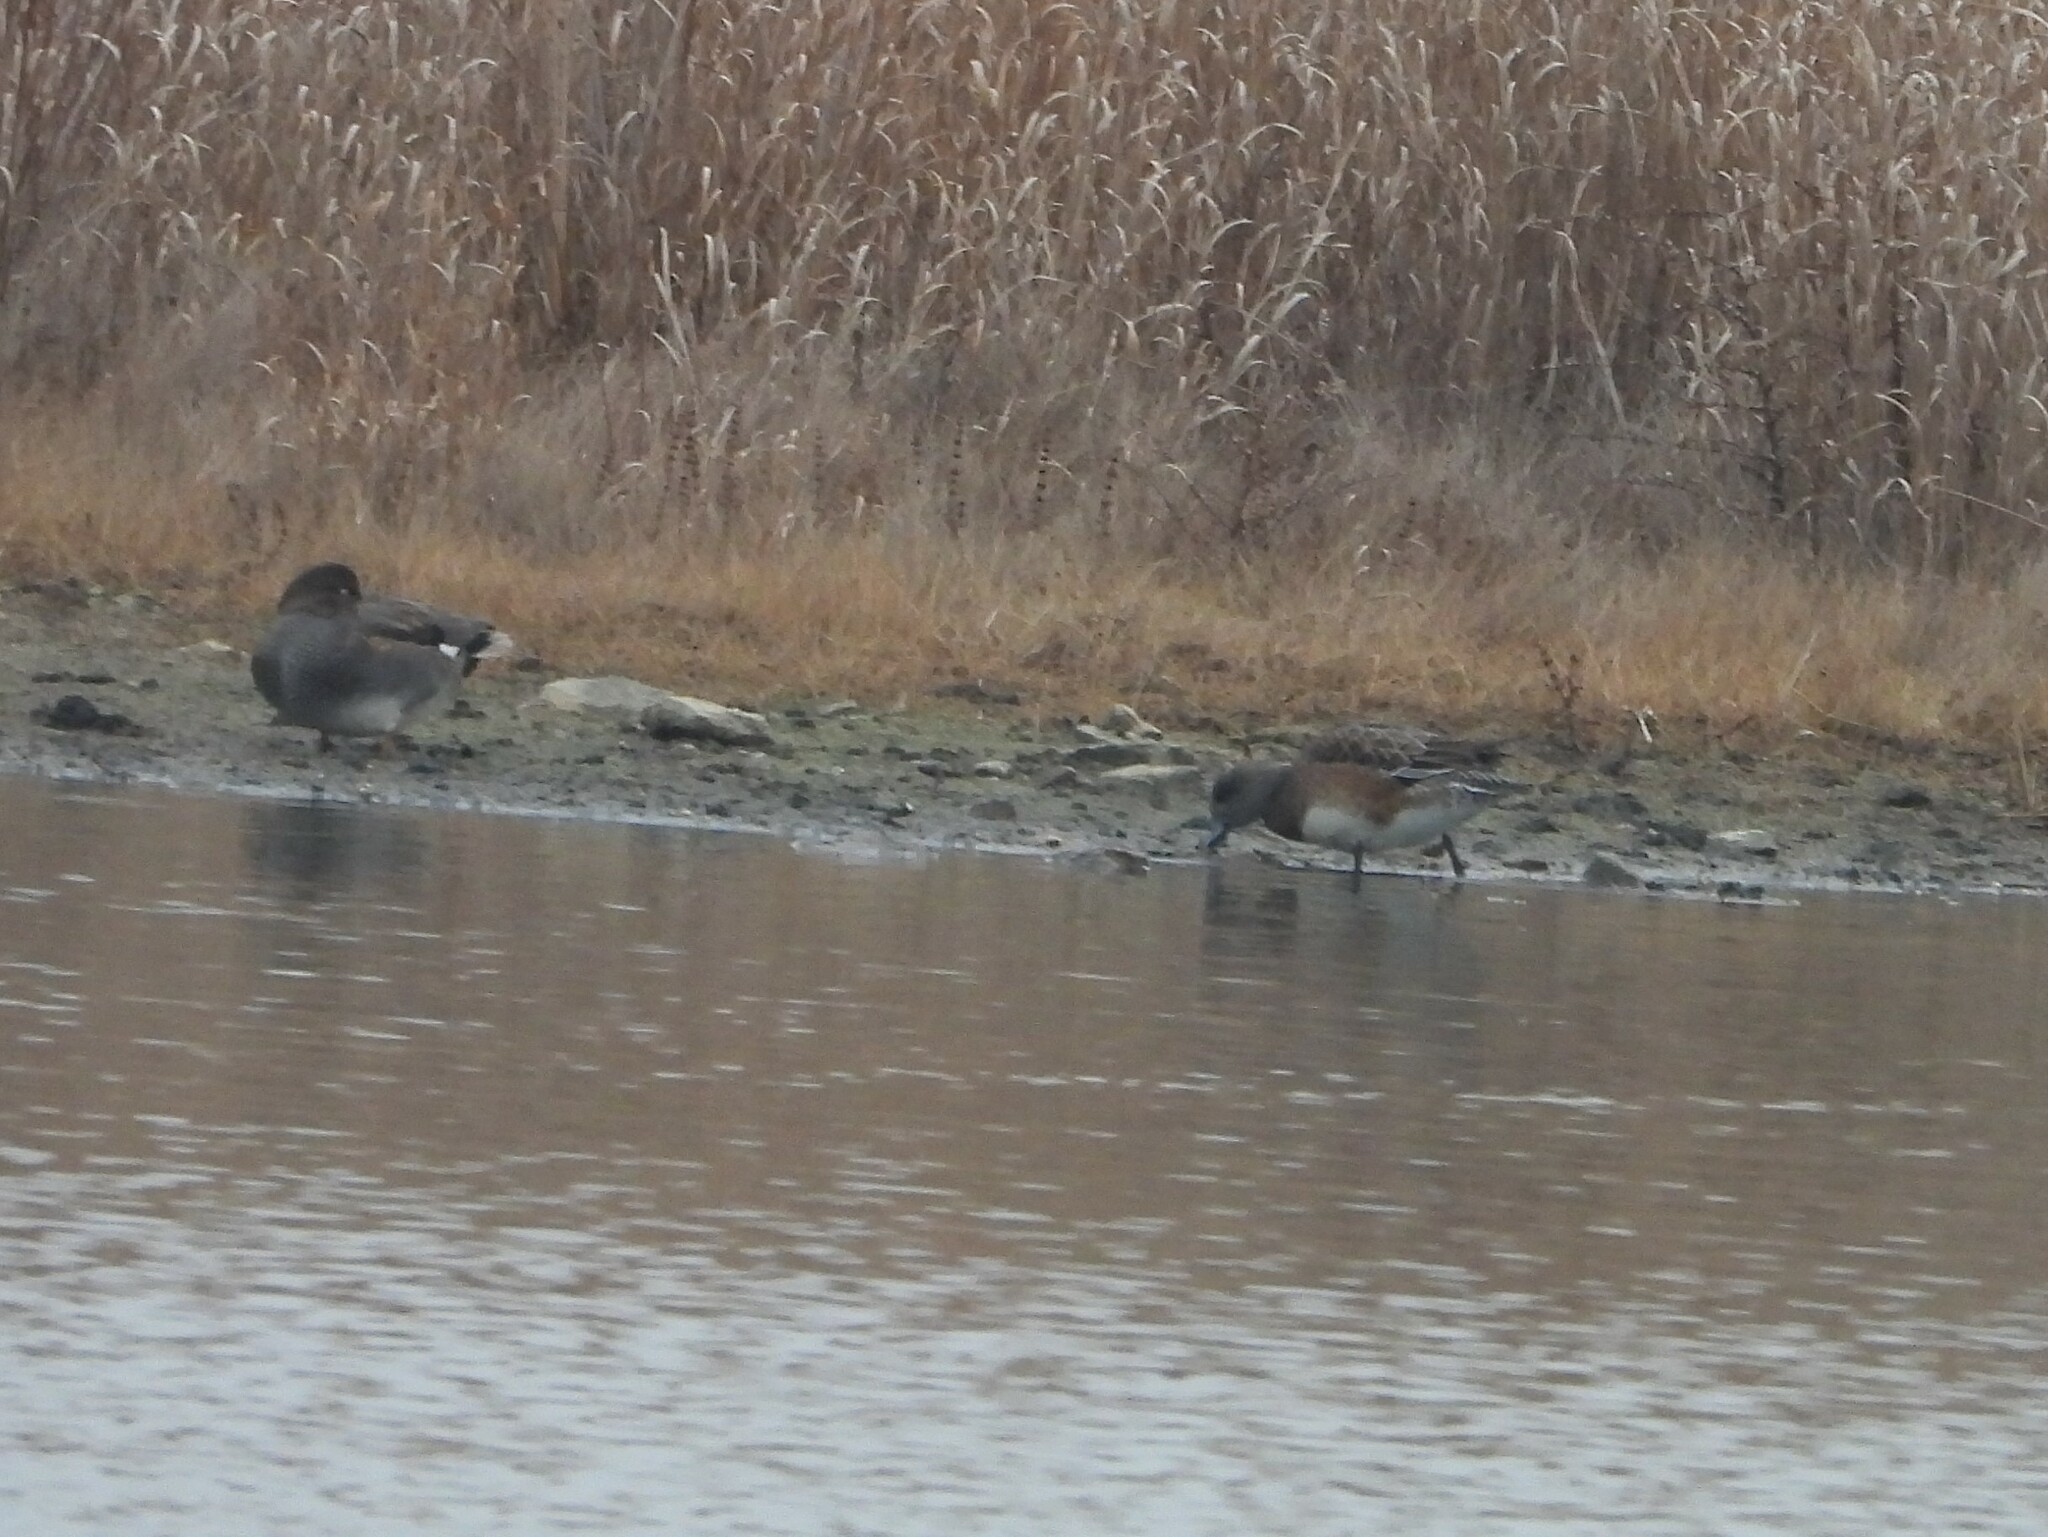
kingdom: Animalia
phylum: Chordata
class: Aves
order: Anseriformes
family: Anatidae
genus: Mareca
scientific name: Mareca americana
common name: American wigeon
